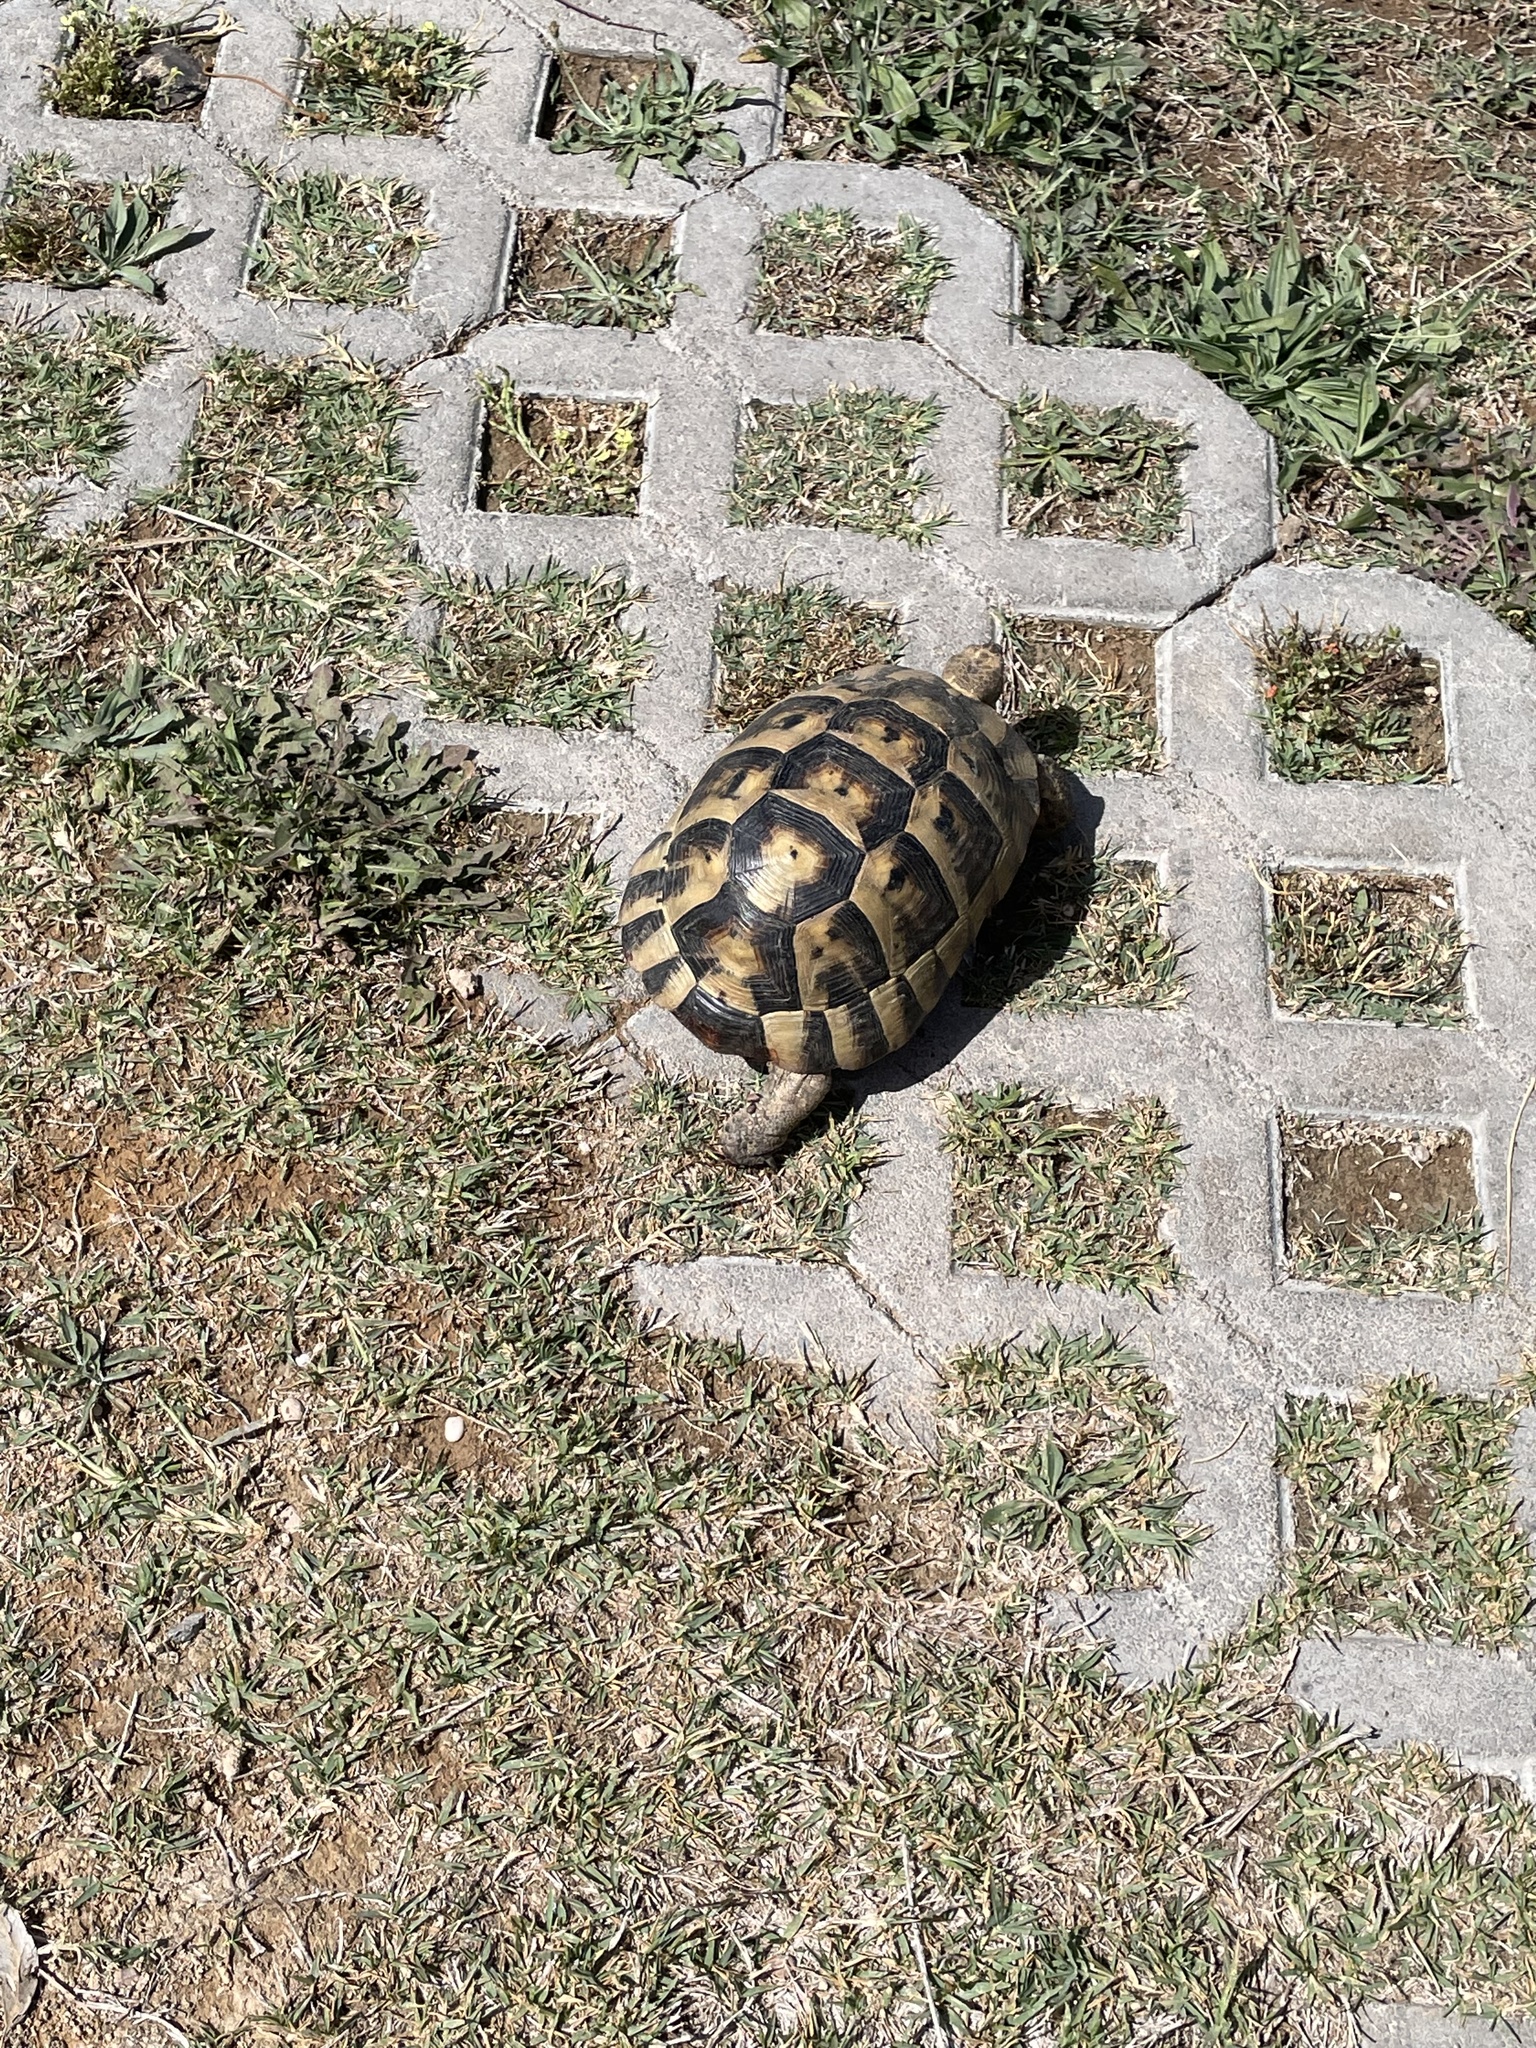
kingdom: Animalia
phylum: Chordata
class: Testudines
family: Testudinidae
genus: Testudo
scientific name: Testudo graeca
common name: Common tortoise
